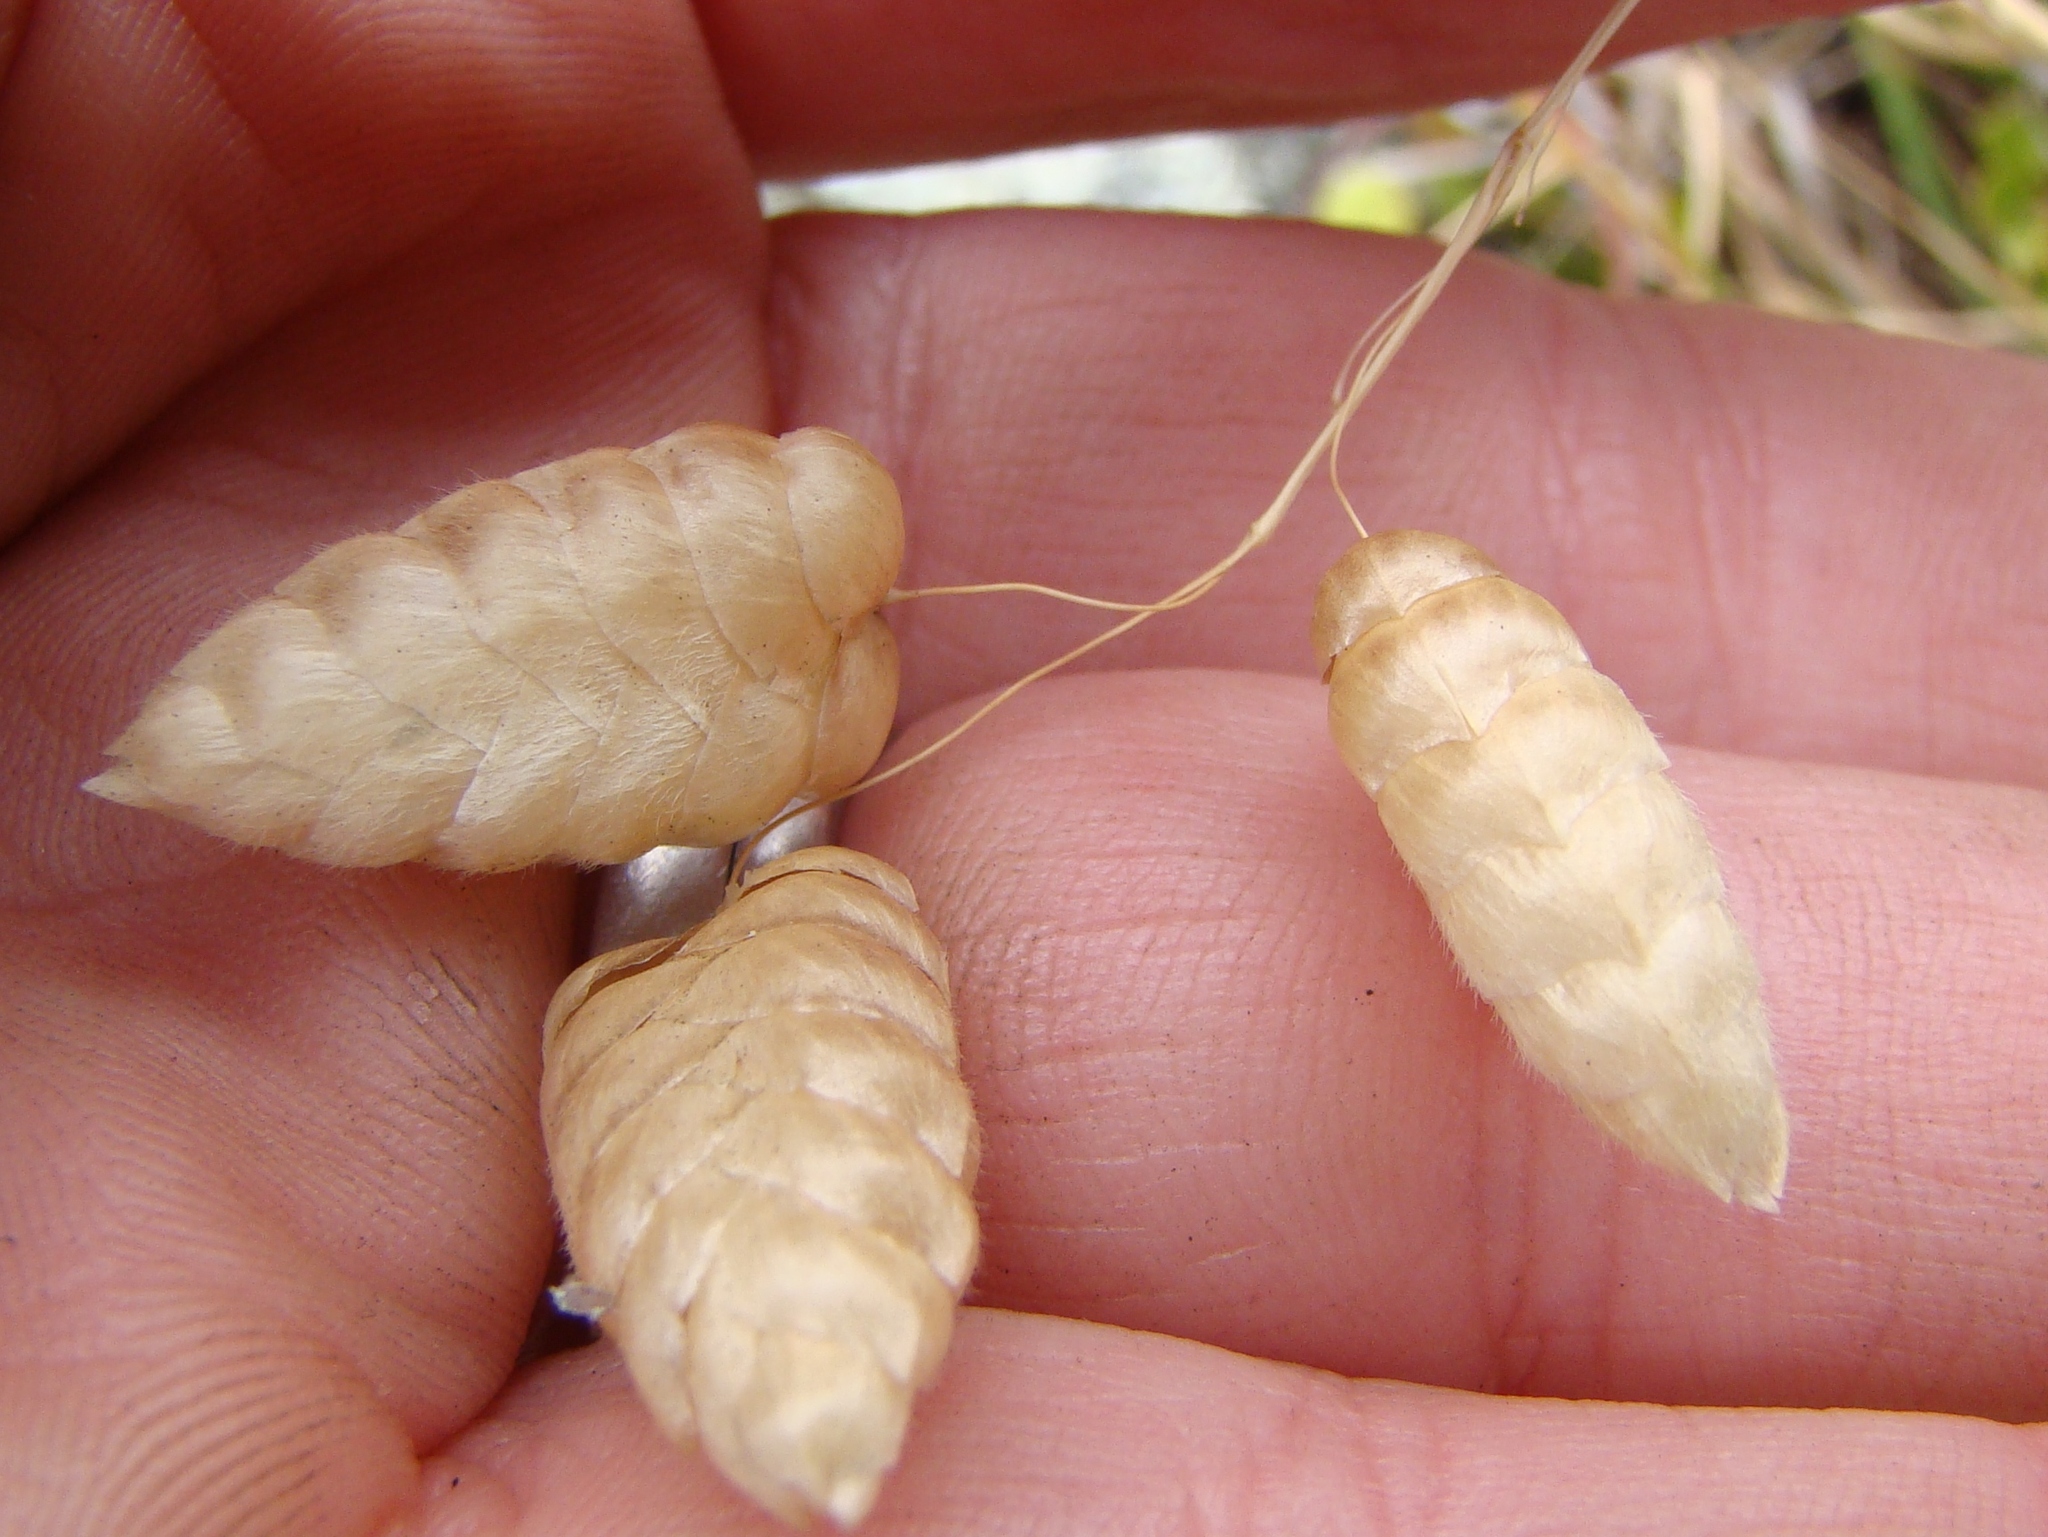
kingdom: Plantae
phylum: Tracheophyta
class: Liliopsida
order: Poales
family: Poaceae
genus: Briza
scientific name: Briza maxima
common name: Big quakinggrass
